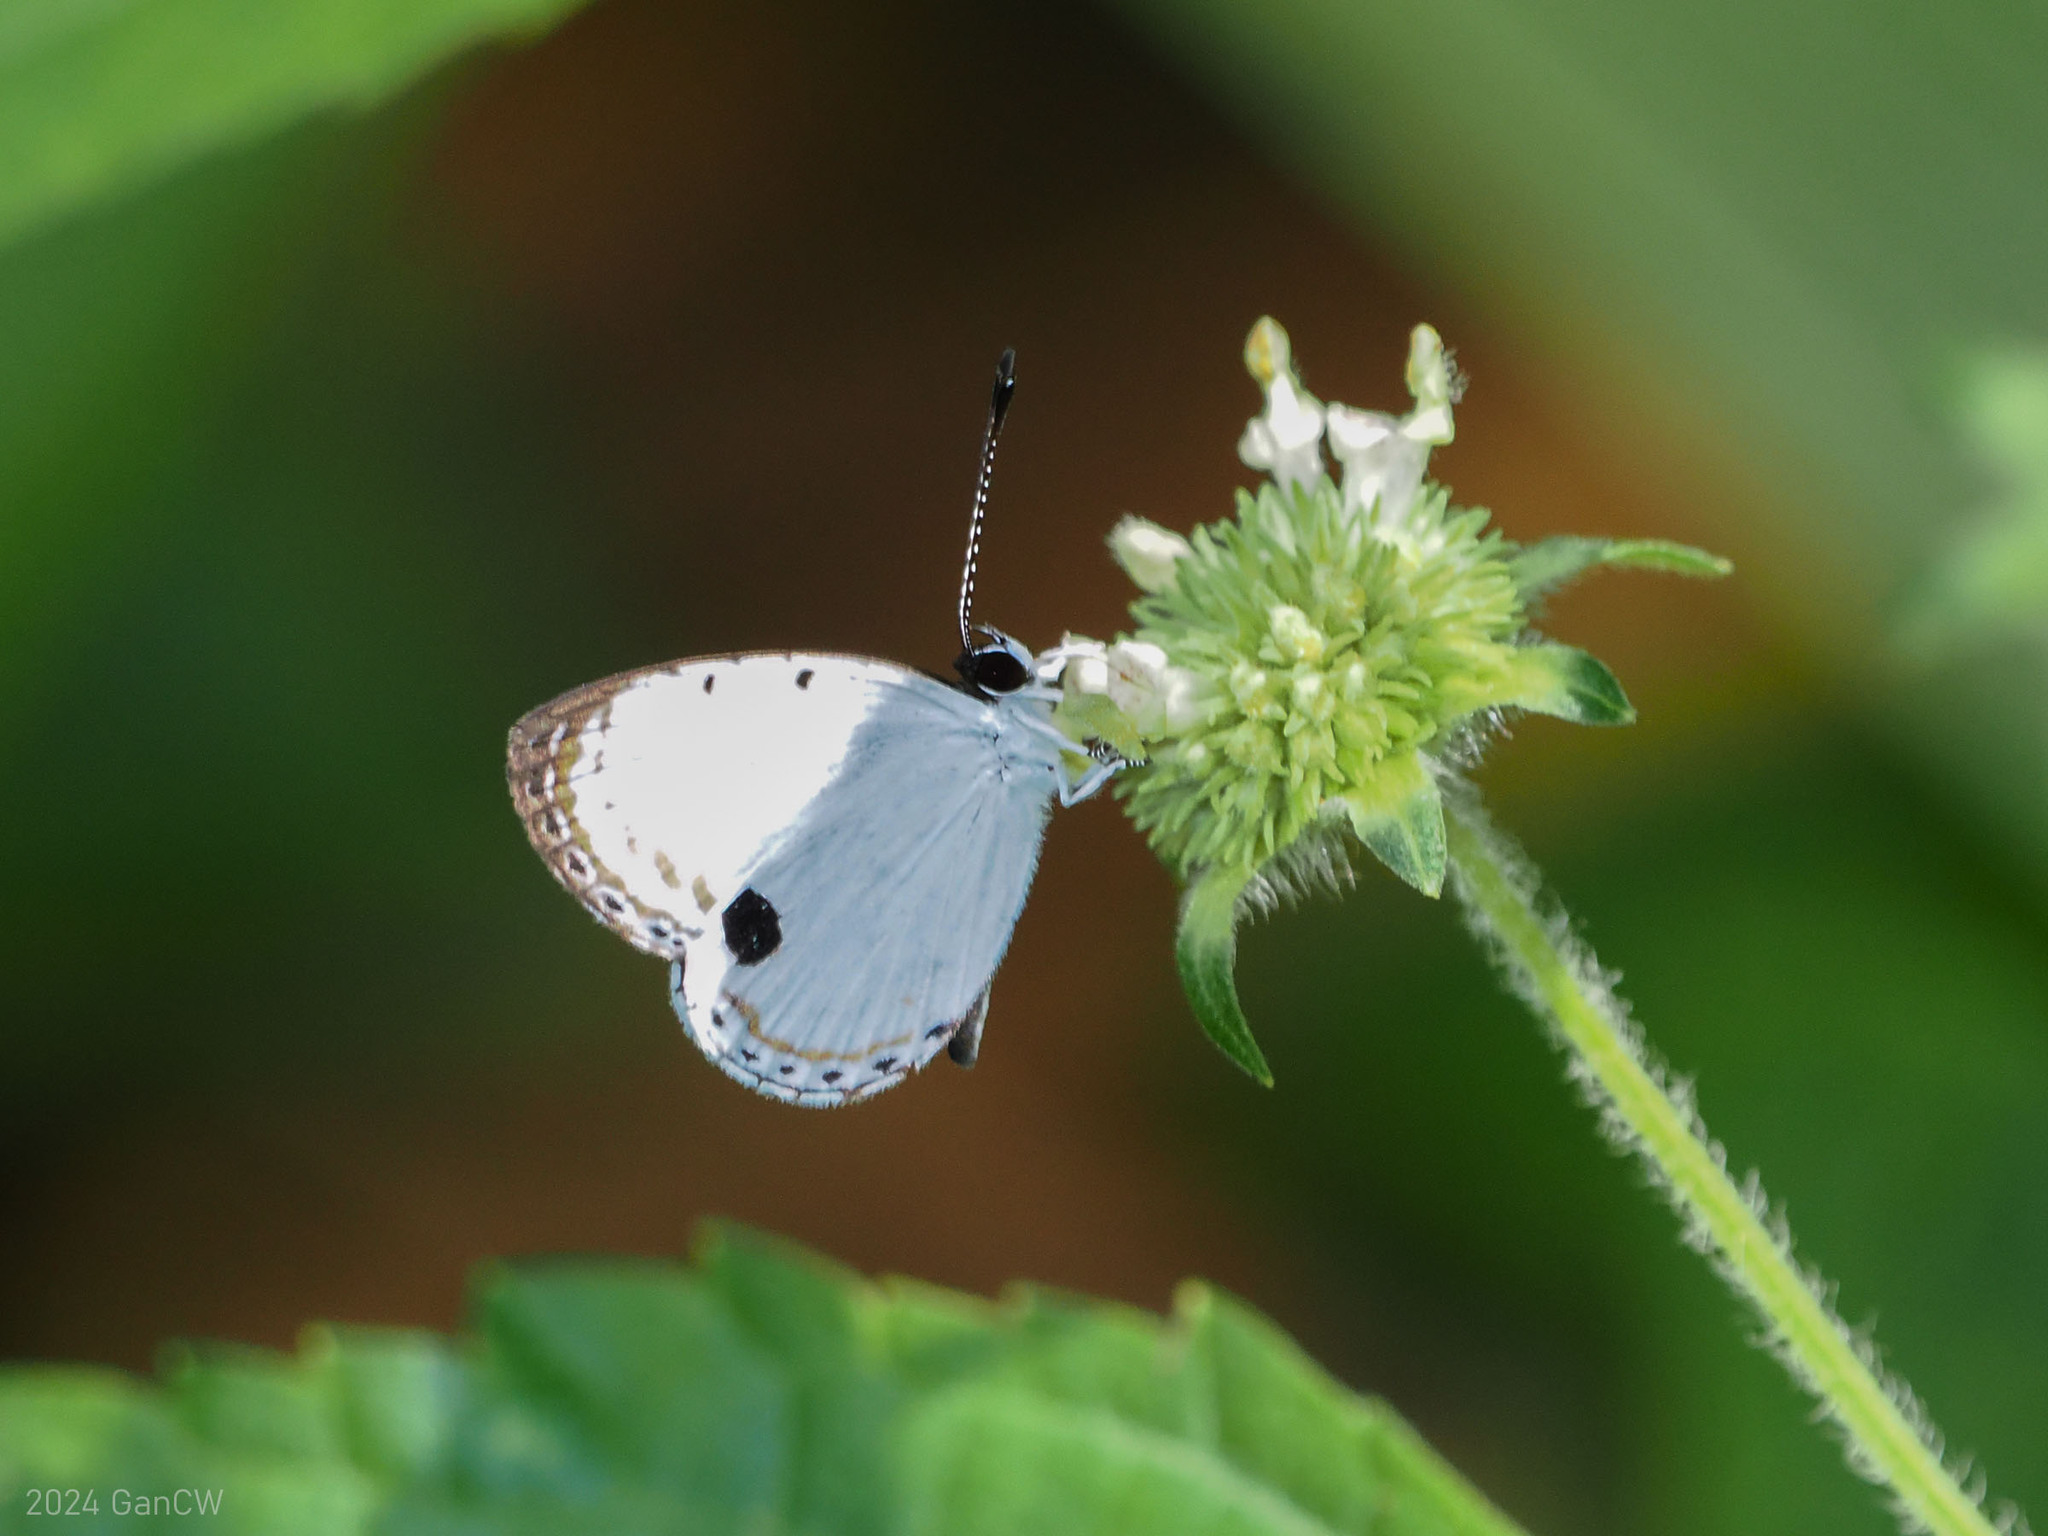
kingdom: Animalia
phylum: Arthropoda
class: Insecta
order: Lepidoptera
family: Lycaenidae
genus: Pithecops
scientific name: Pithecops corvus
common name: Forest quaker
